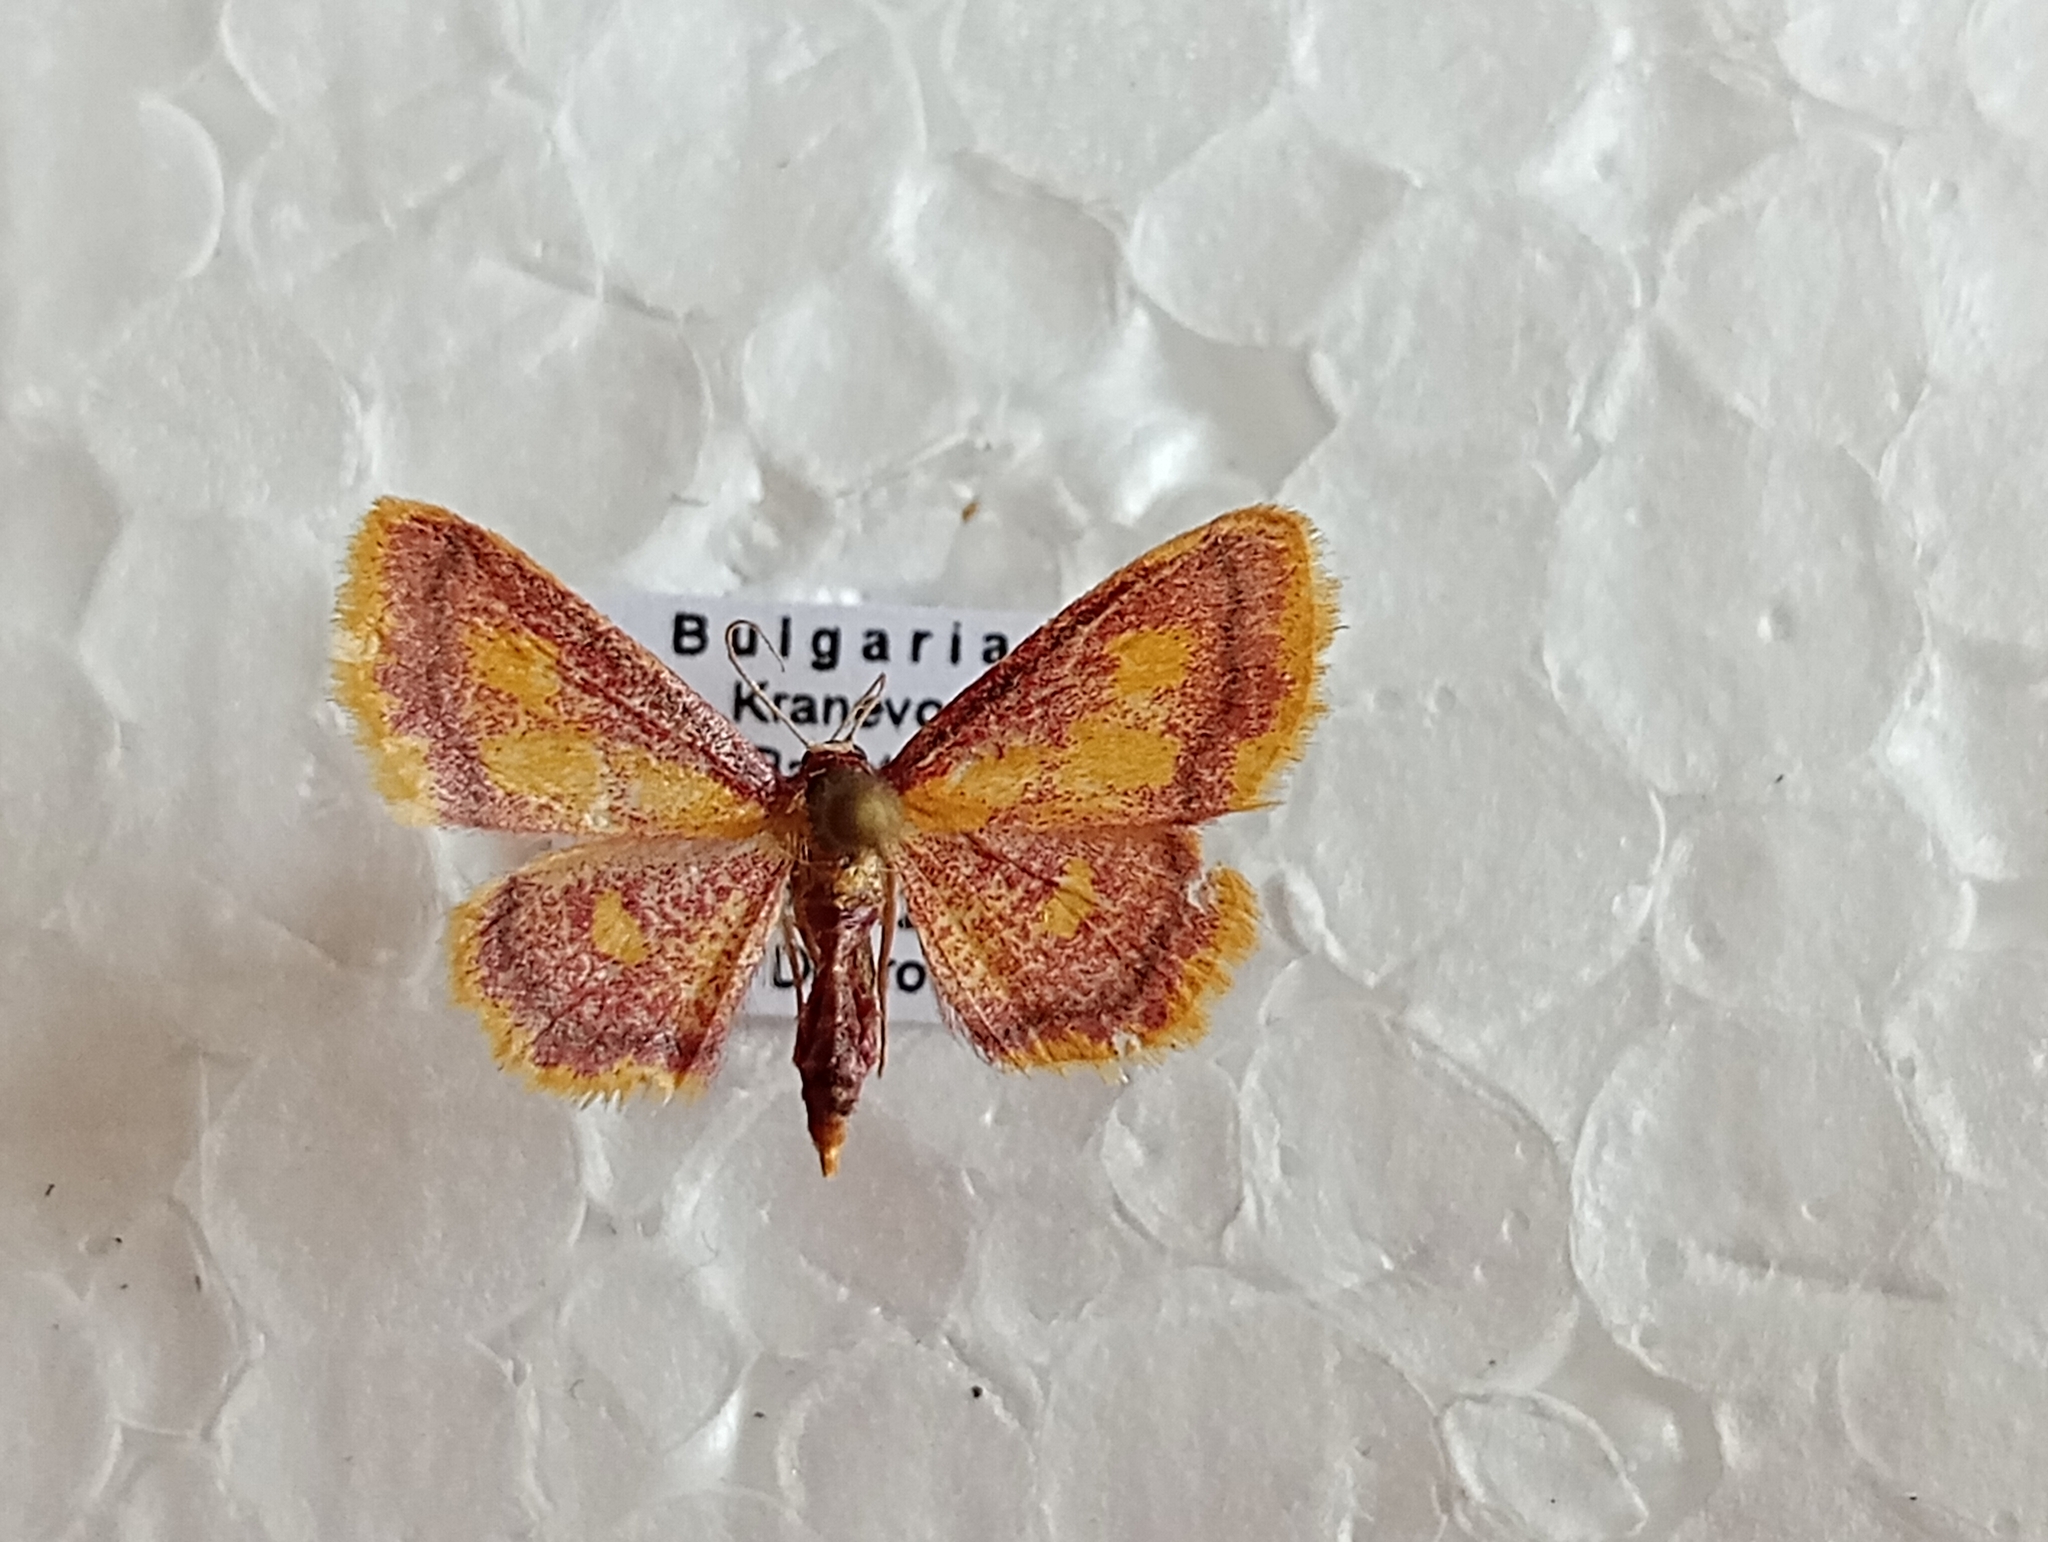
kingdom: Animalia
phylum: Arthropoda
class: Insecta
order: Lepidoptera
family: Geometridae
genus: Idaea
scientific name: Idaea muricata
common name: Purple-bordered gold
